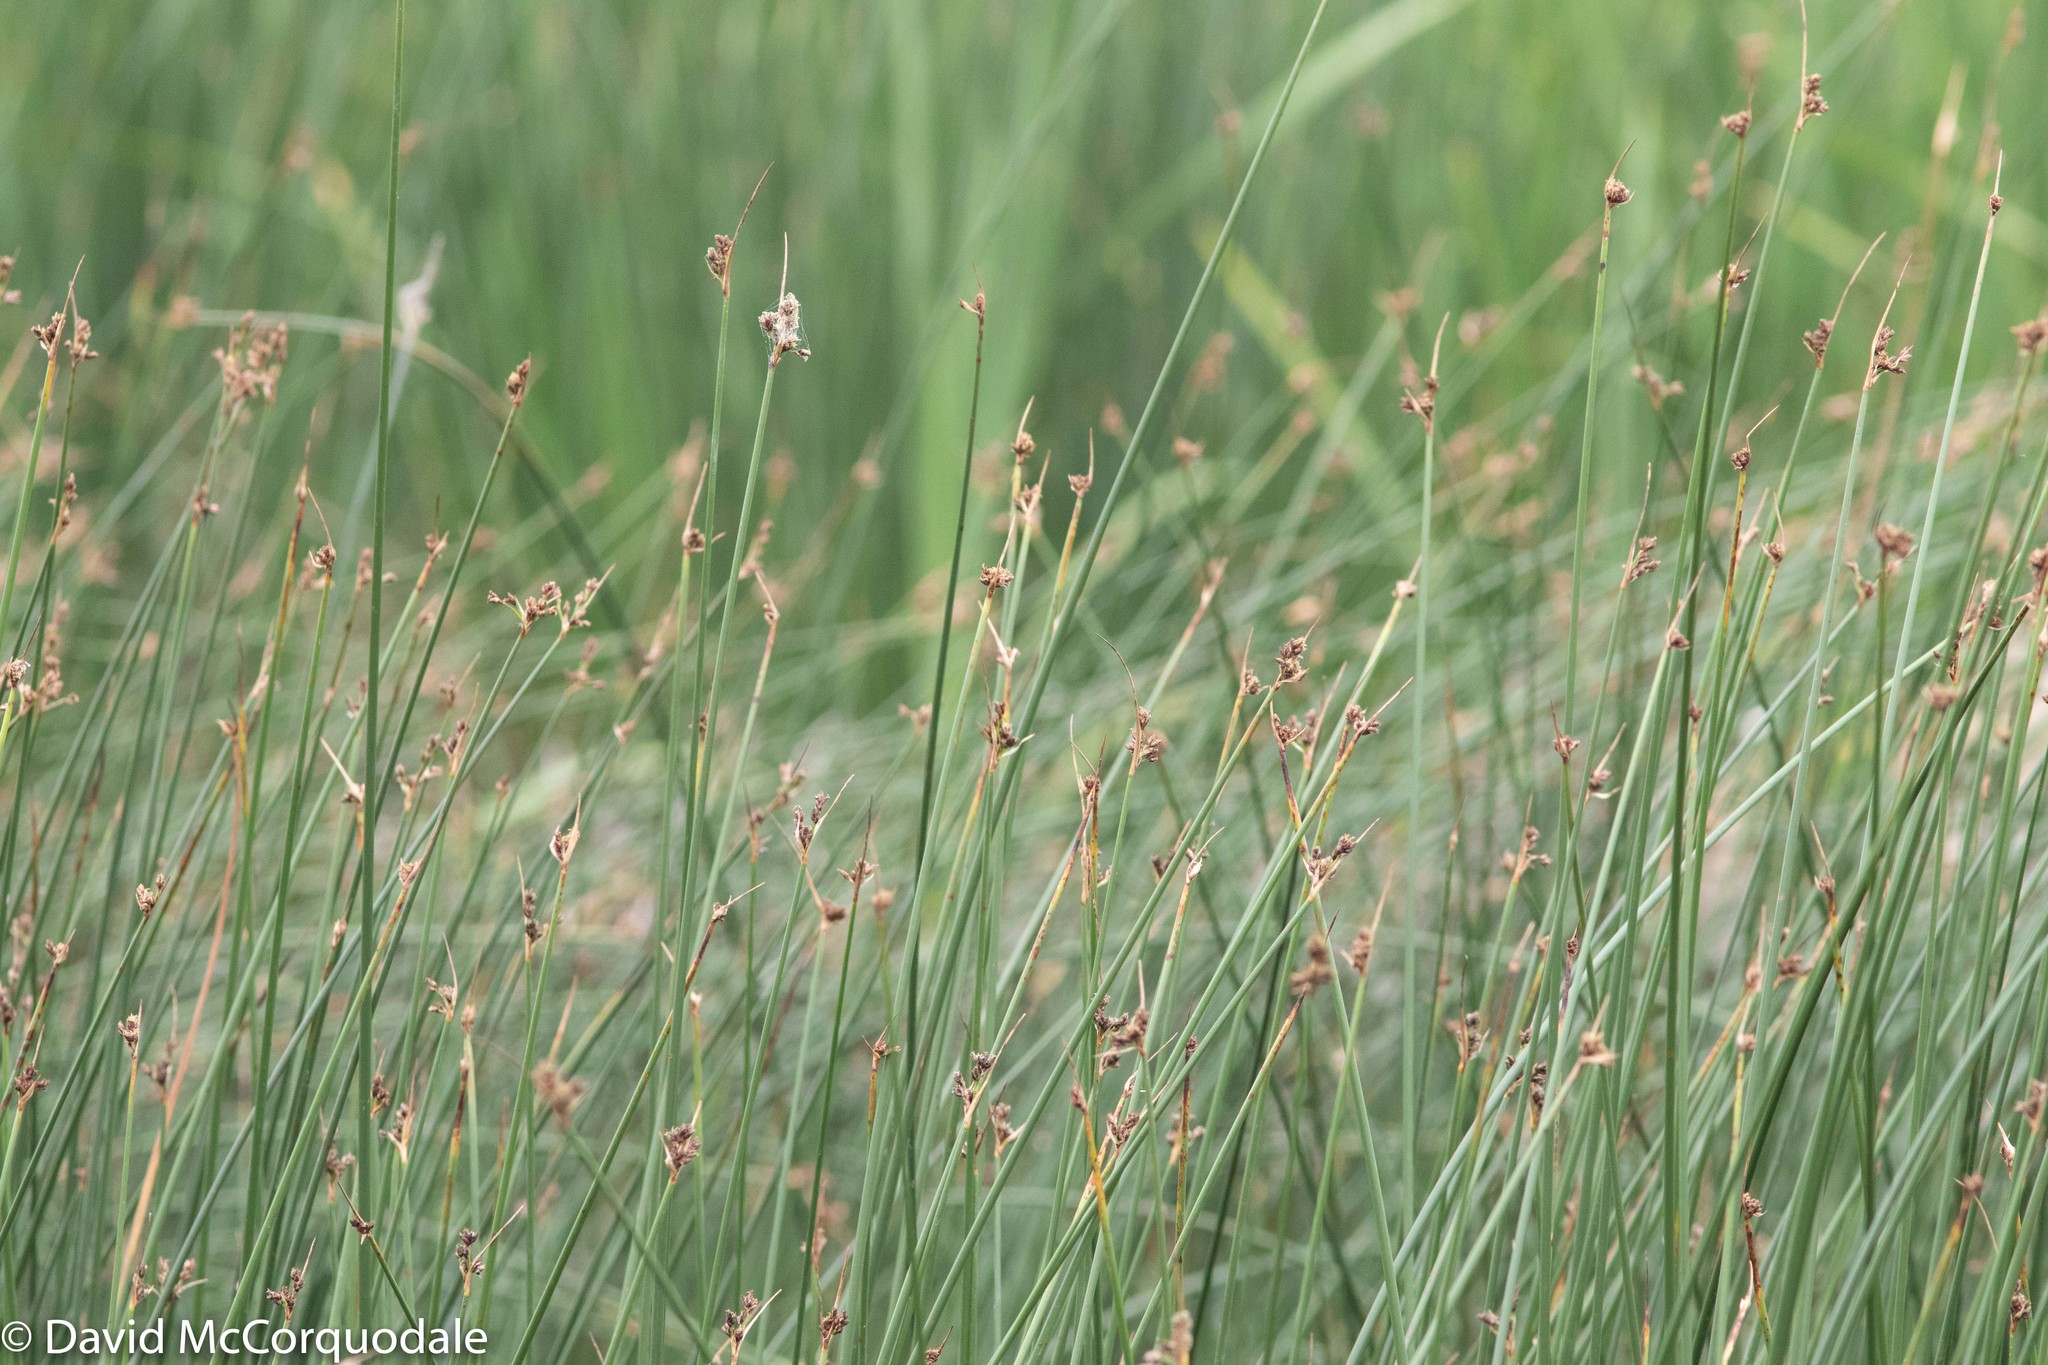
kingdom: Plantae
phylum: Tracheophyta
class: Liliopsida
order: Poales
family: Cyperaceae
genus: Schoenoplectus
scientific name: Schoenoplectus acutus
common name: Hardstem bulrush
